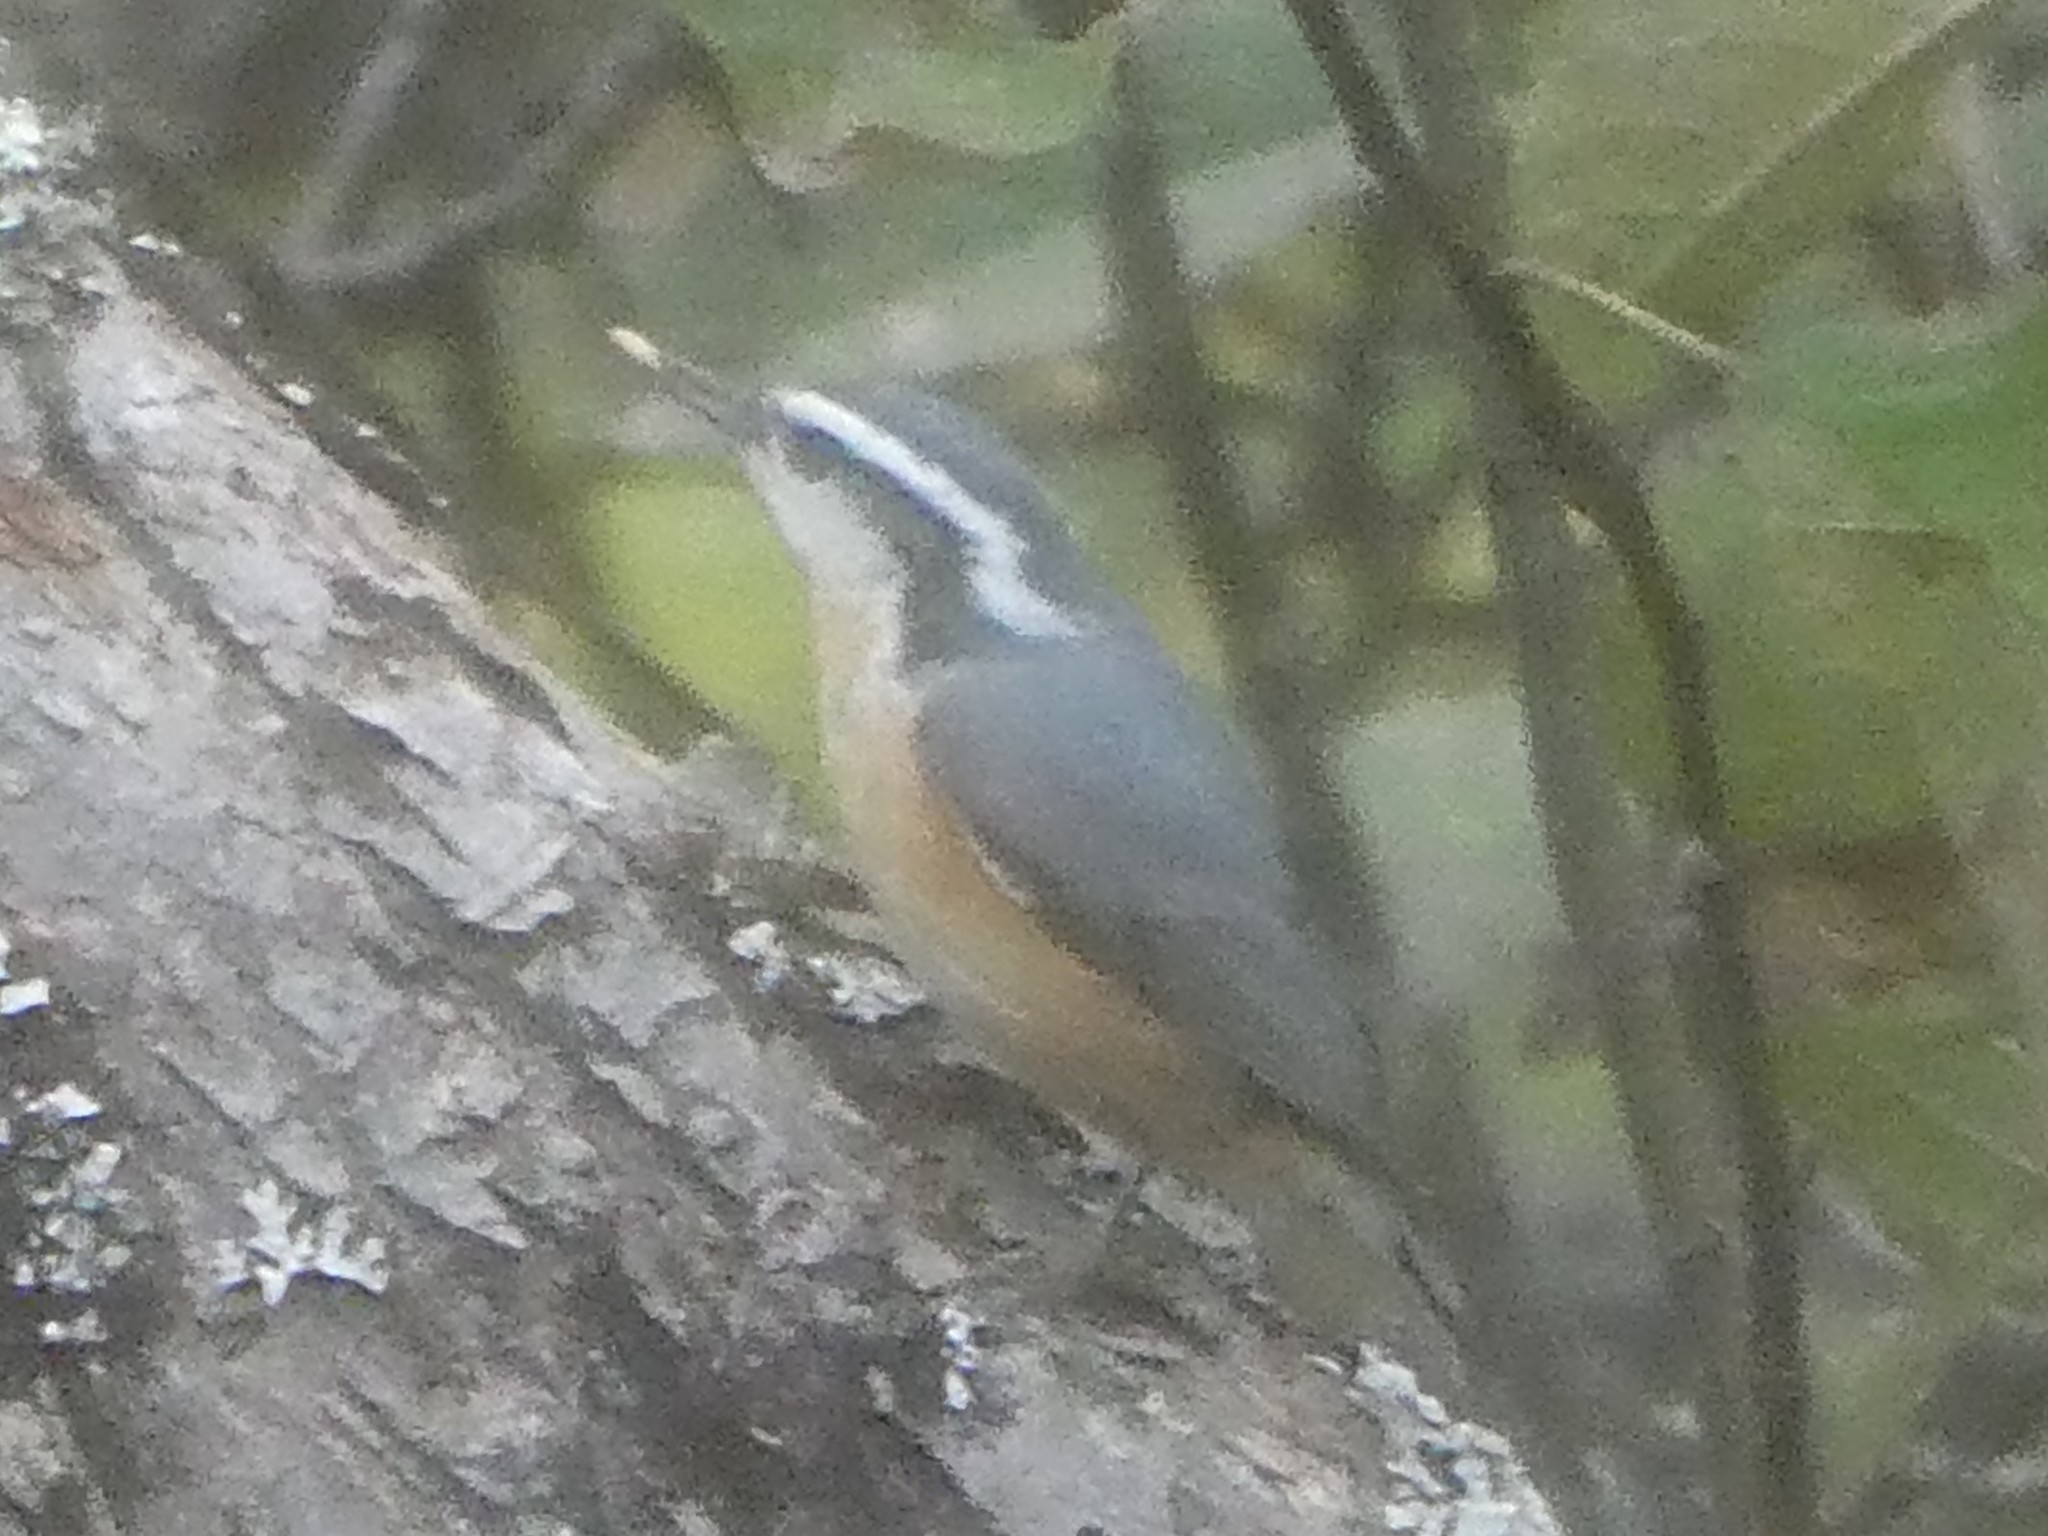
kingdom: Animalia
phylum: Chordata
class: Aves
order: Passeriformes
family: Sittidae
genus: Sitta
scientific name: Sitta canadensis
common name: Red-breasted nuthatch
